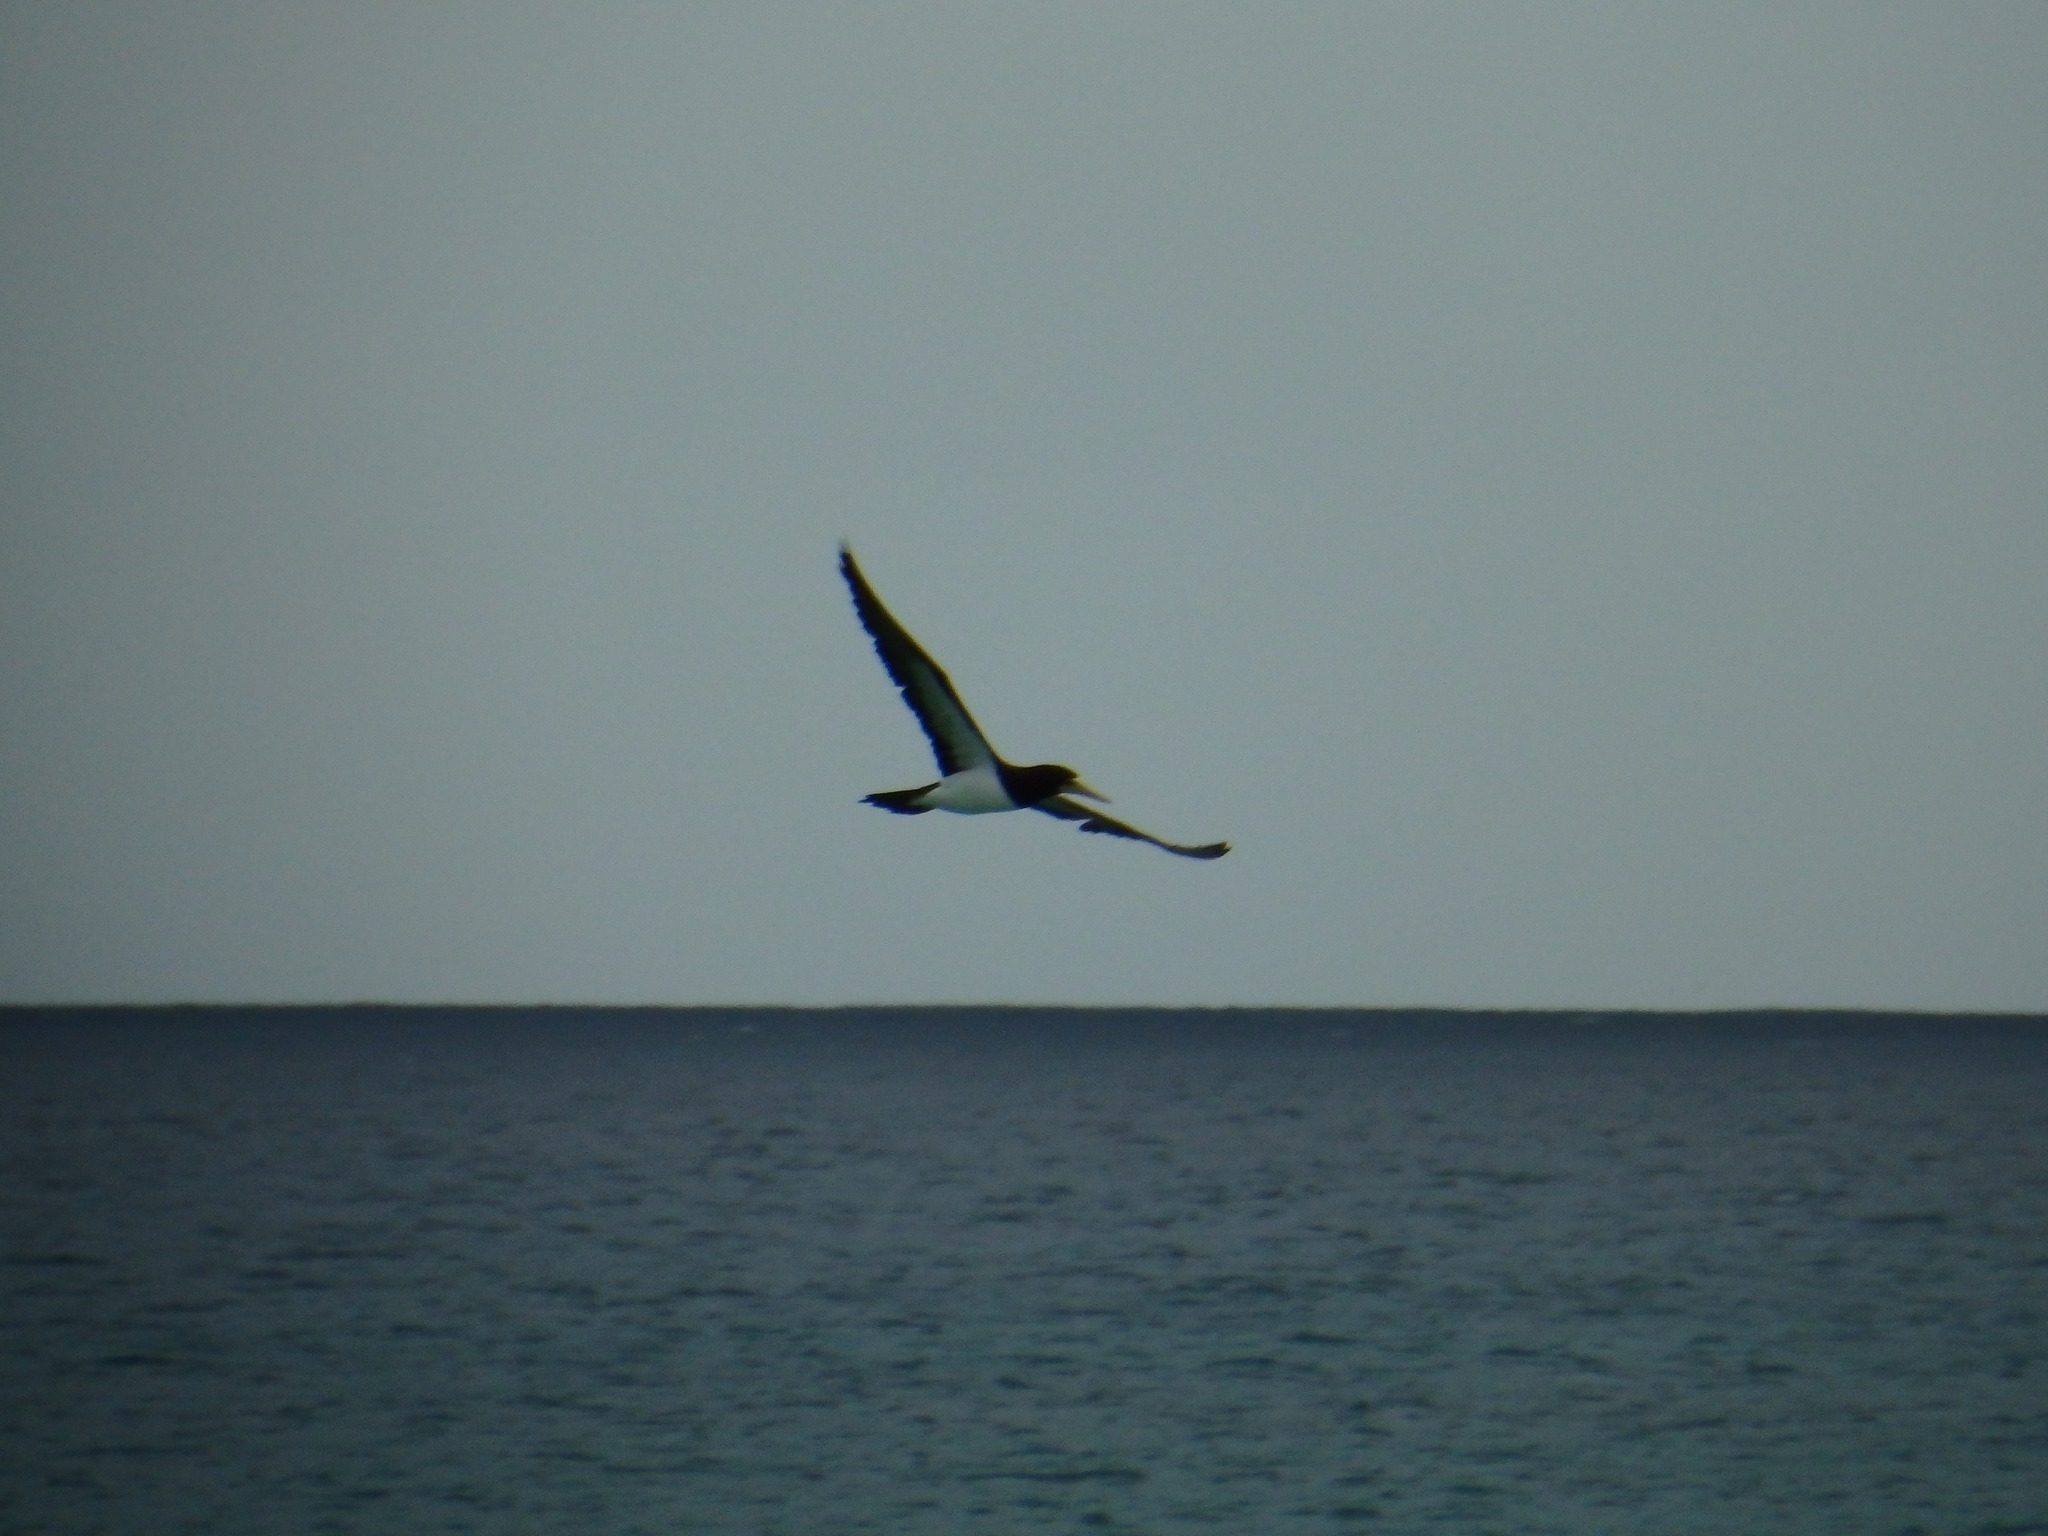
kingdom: Animalia
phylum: Chordata
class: Aves
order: Suliformes
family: Sulidae
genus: Sula
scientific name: Sula leucogaster
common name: Brown booby
